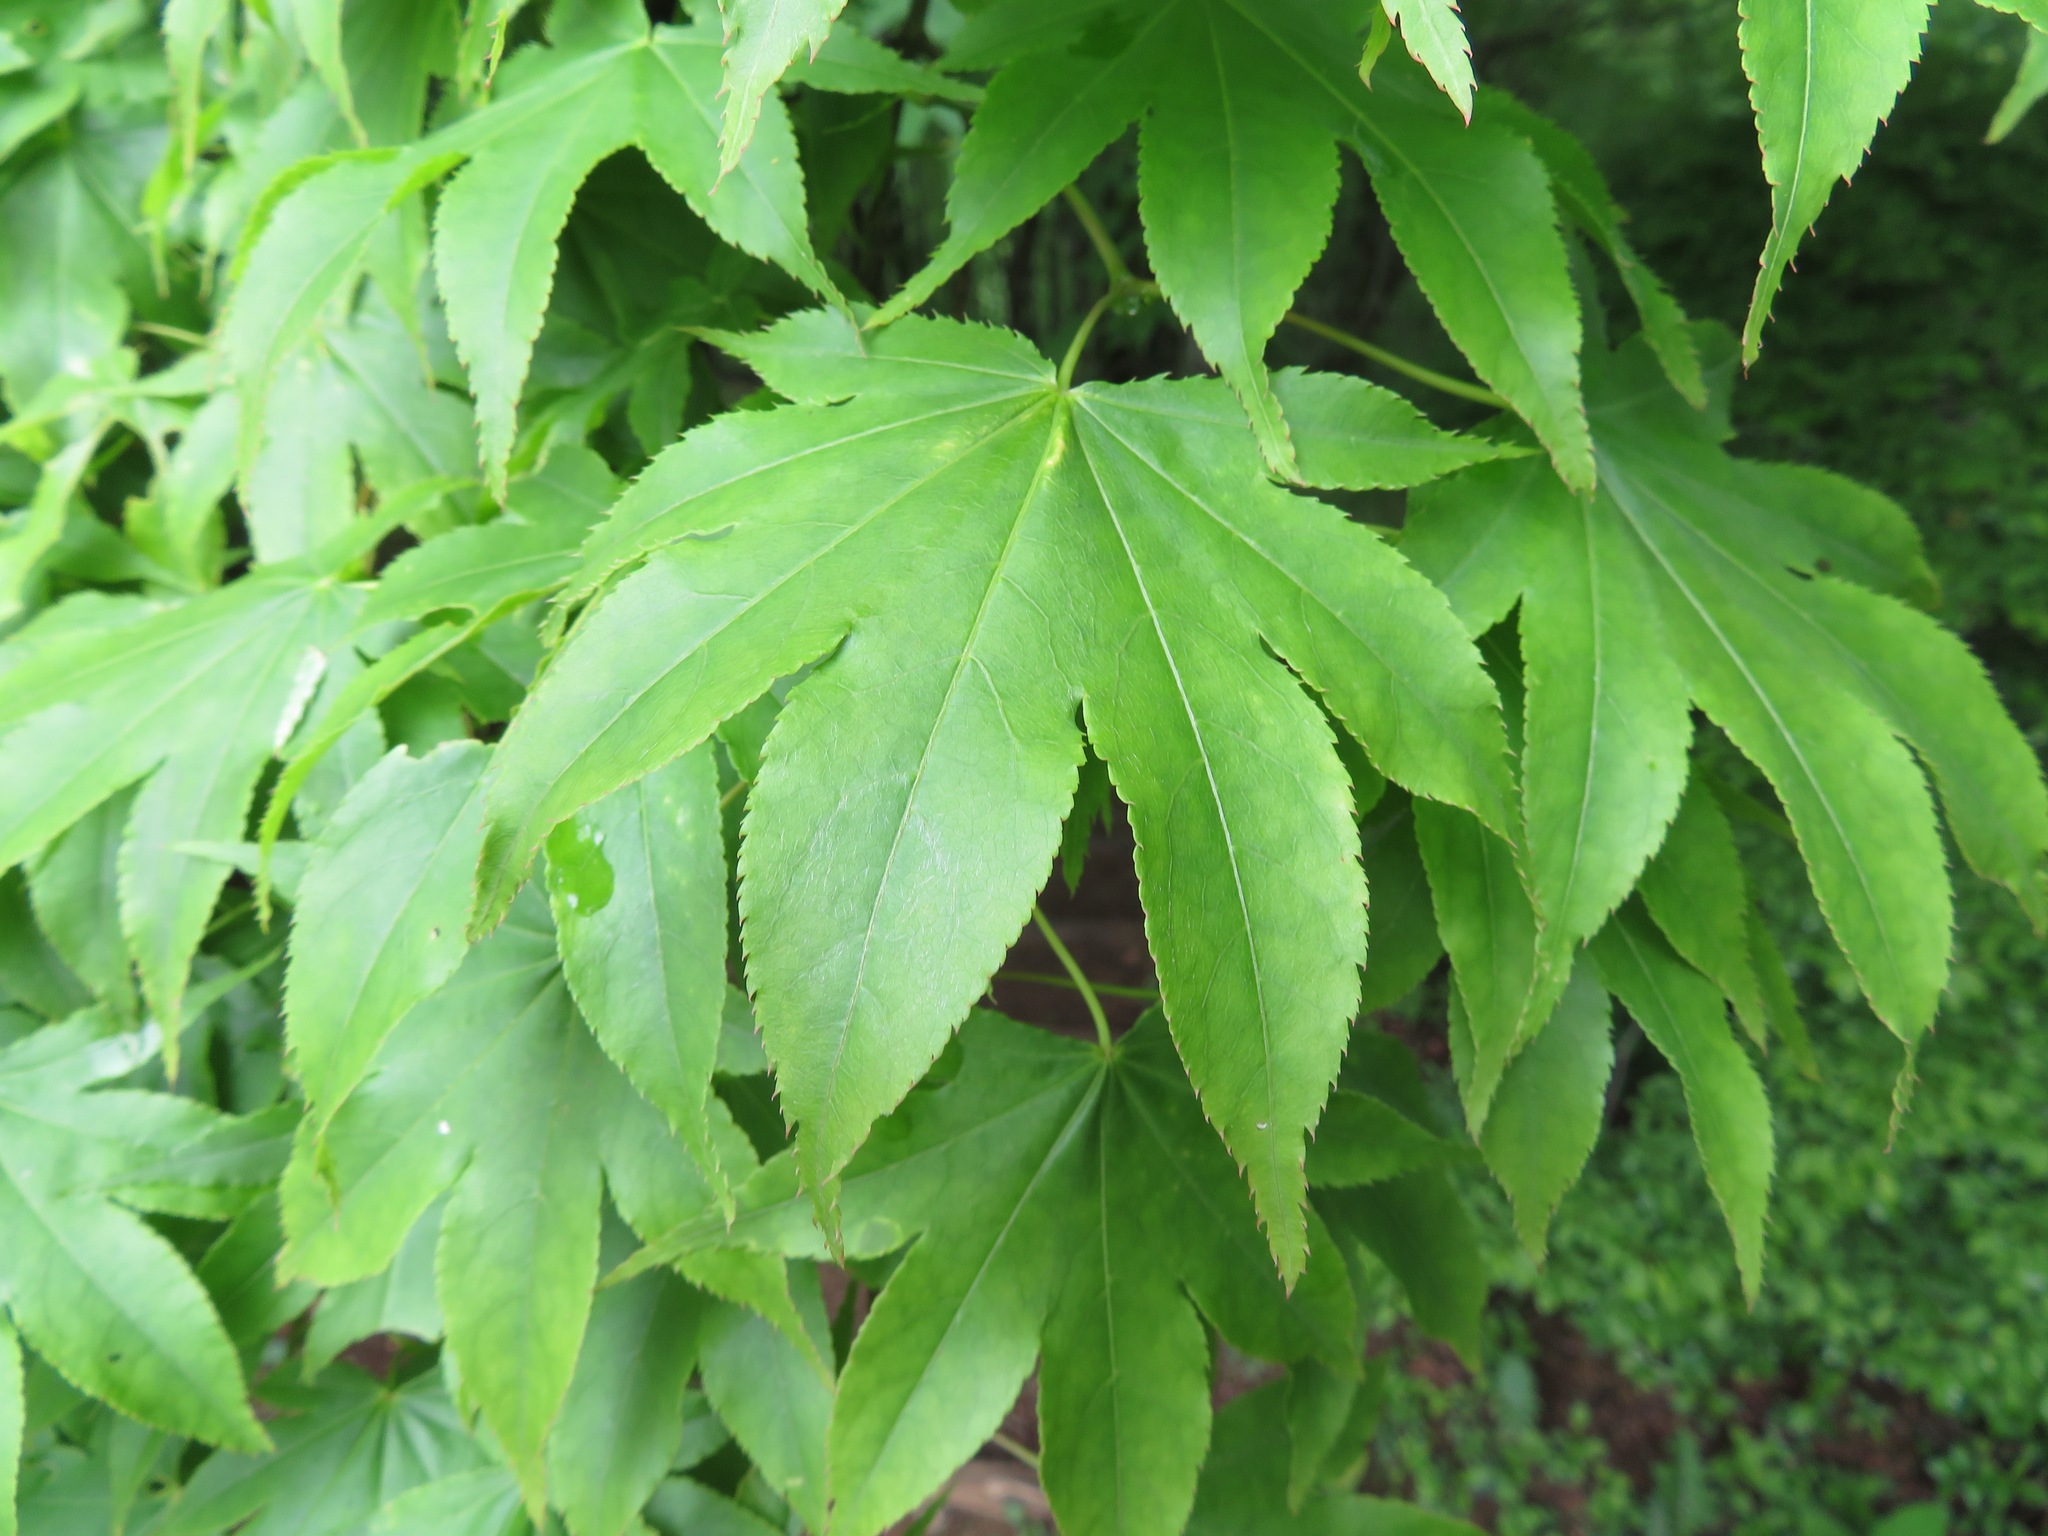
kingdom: Plantae
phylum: Tracheophyta
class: Magnoliopsida
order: Sapindales
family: Sapindaceae
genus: Acer
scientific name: Acer palmatum
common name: Japanese maple
